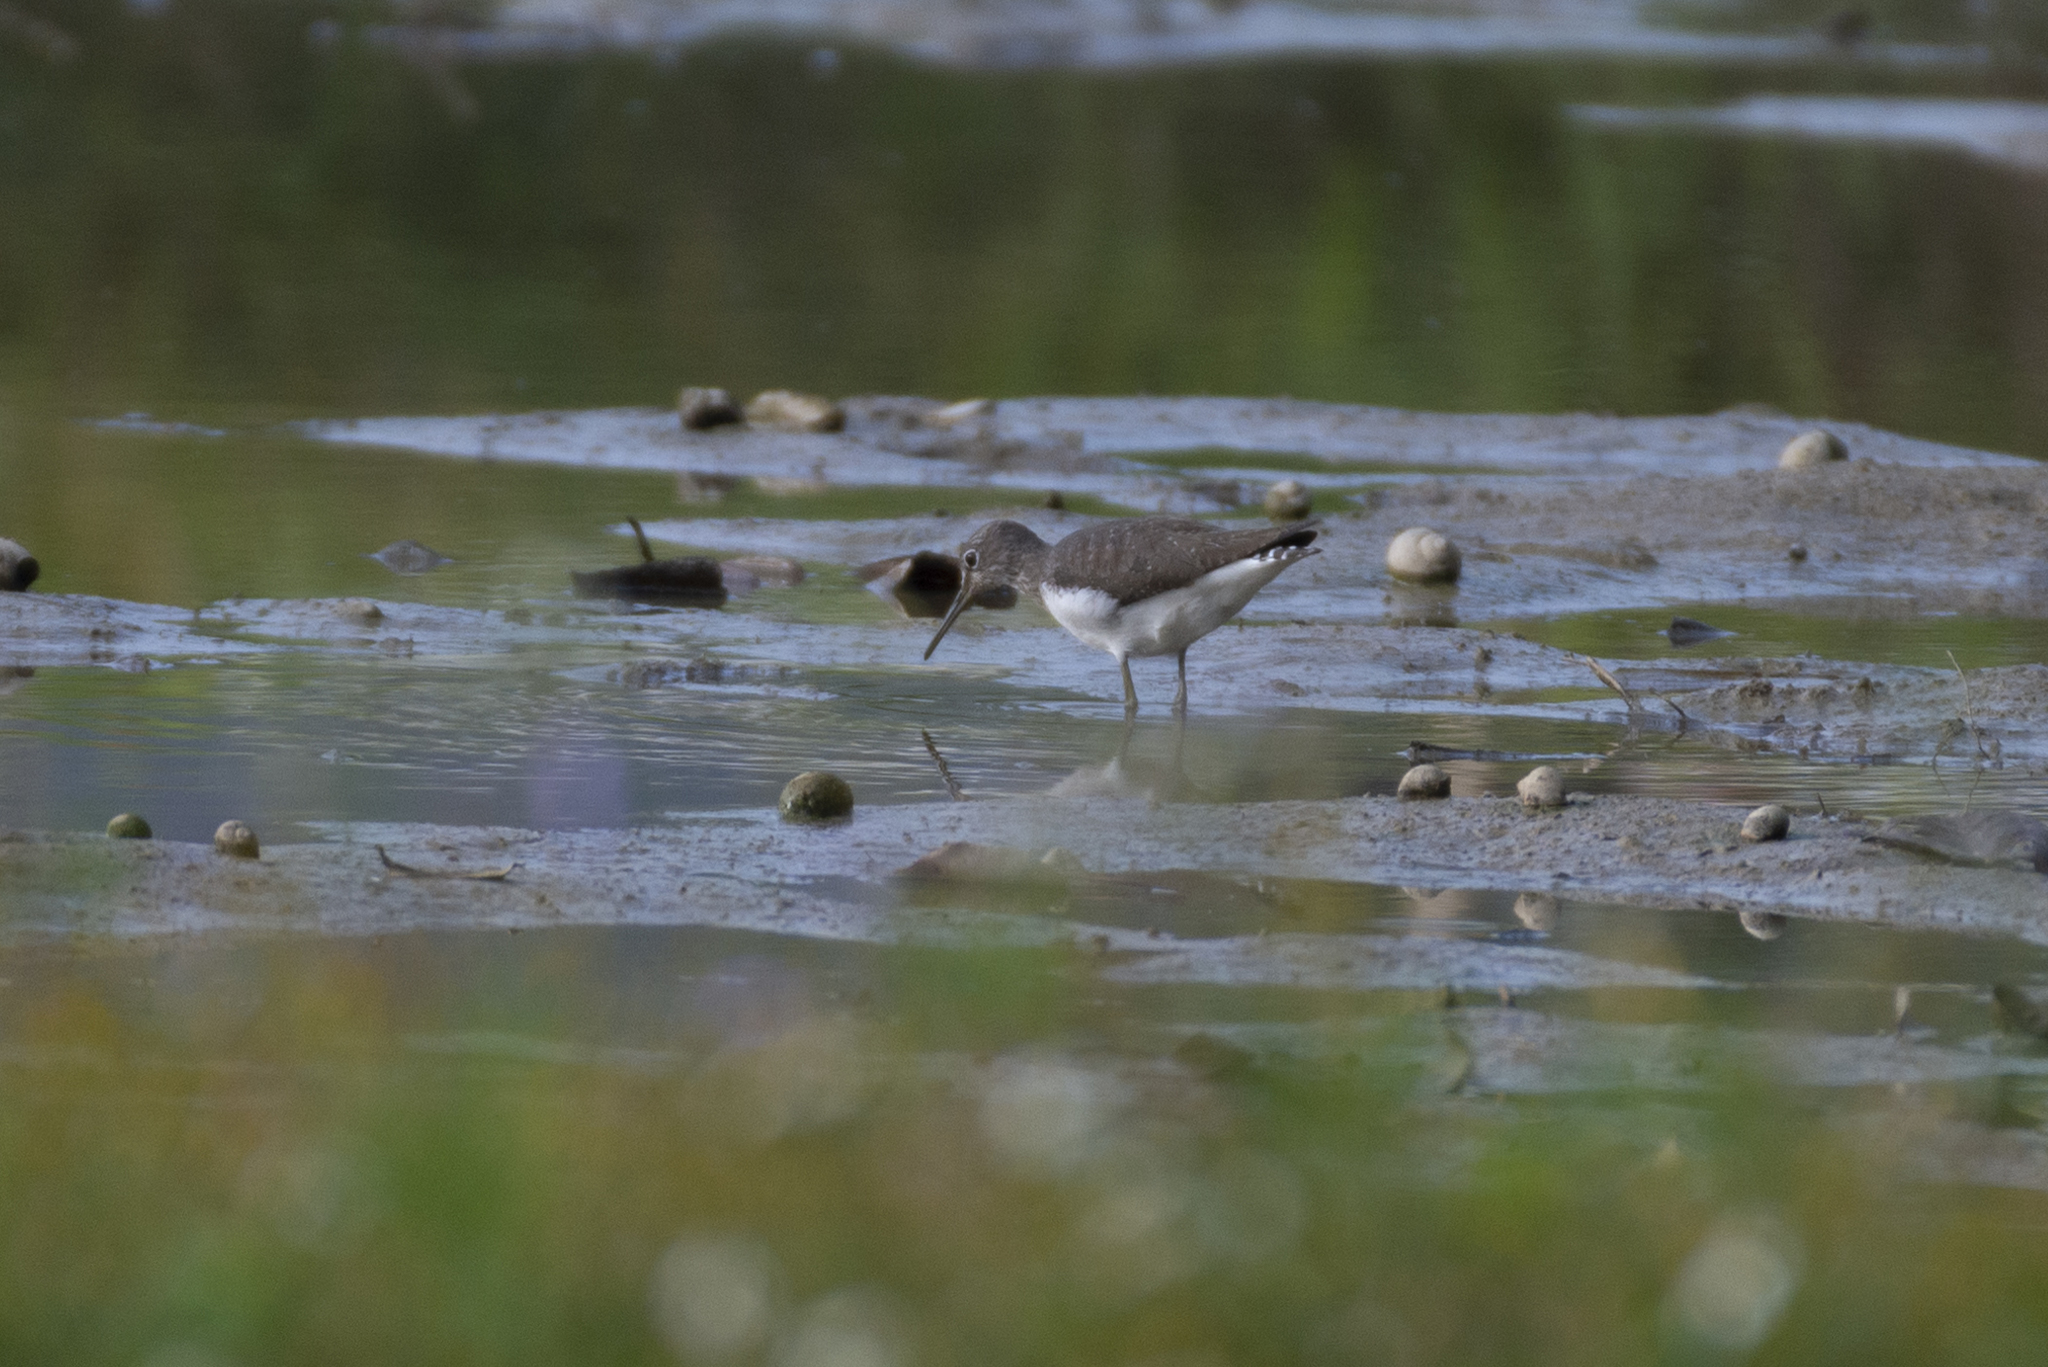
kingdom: Animalia
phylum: Chordata
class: Aves
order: Charadriiformes
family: Scolopacidae
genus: Tringa
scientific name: Tringa ochropus
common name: Green sandpiper
